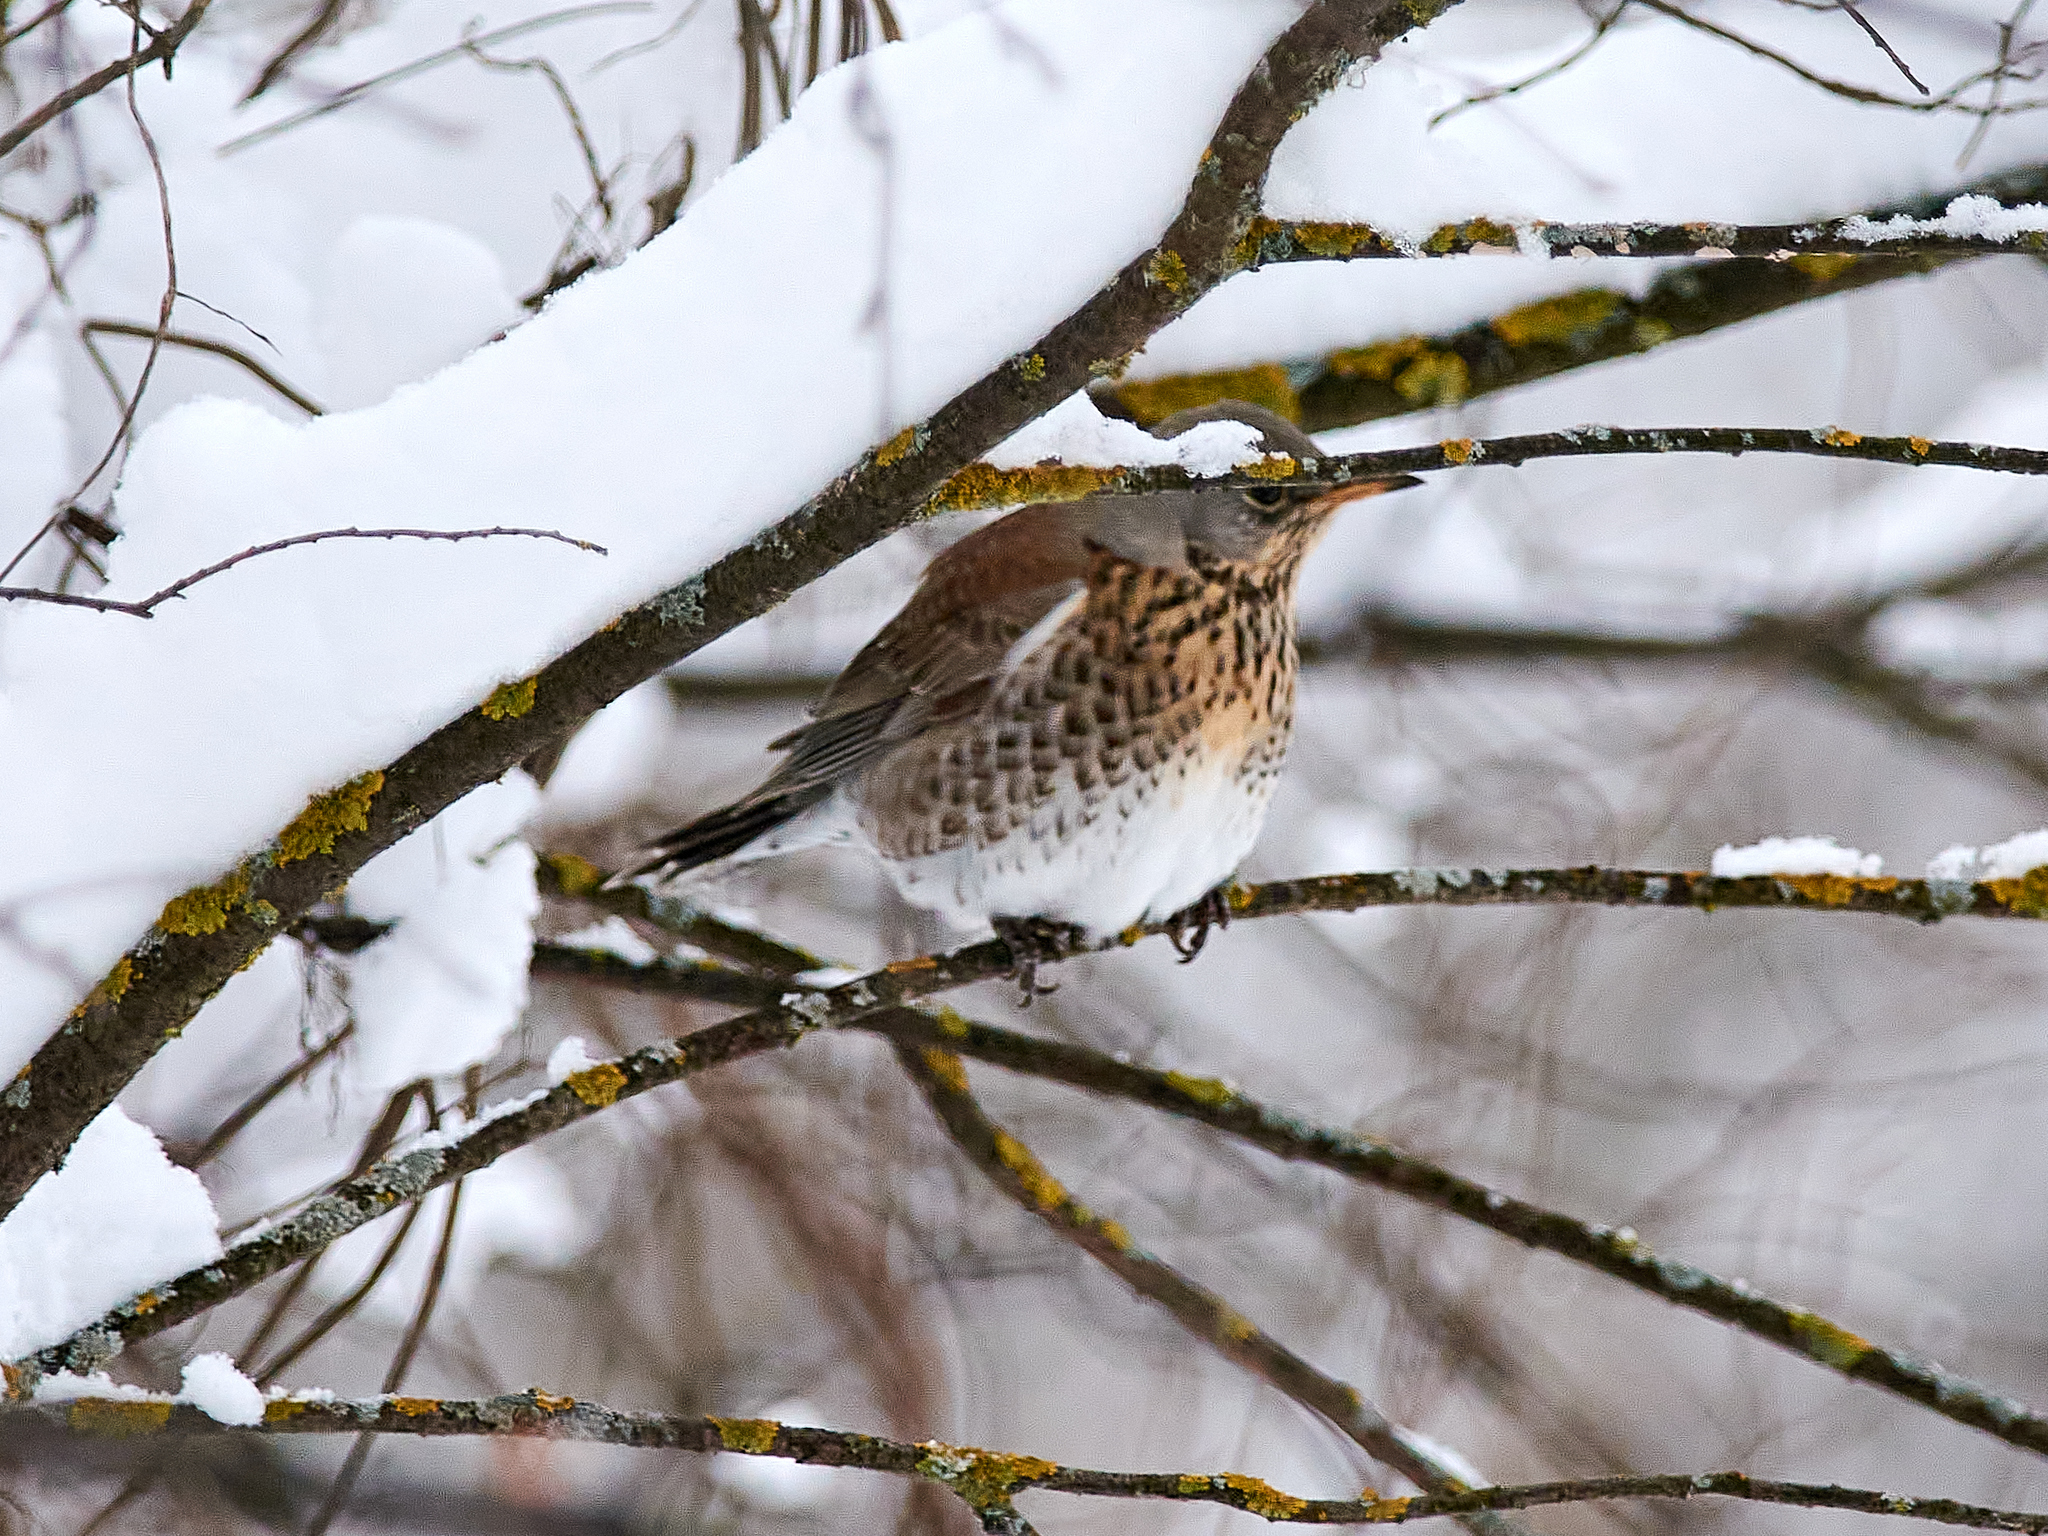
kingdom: Animalia
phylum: Chordata
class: Aves
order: Passeriformes
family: Turdidae
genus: Turdus
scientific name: Turdus pilaris
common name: Fieldfare
